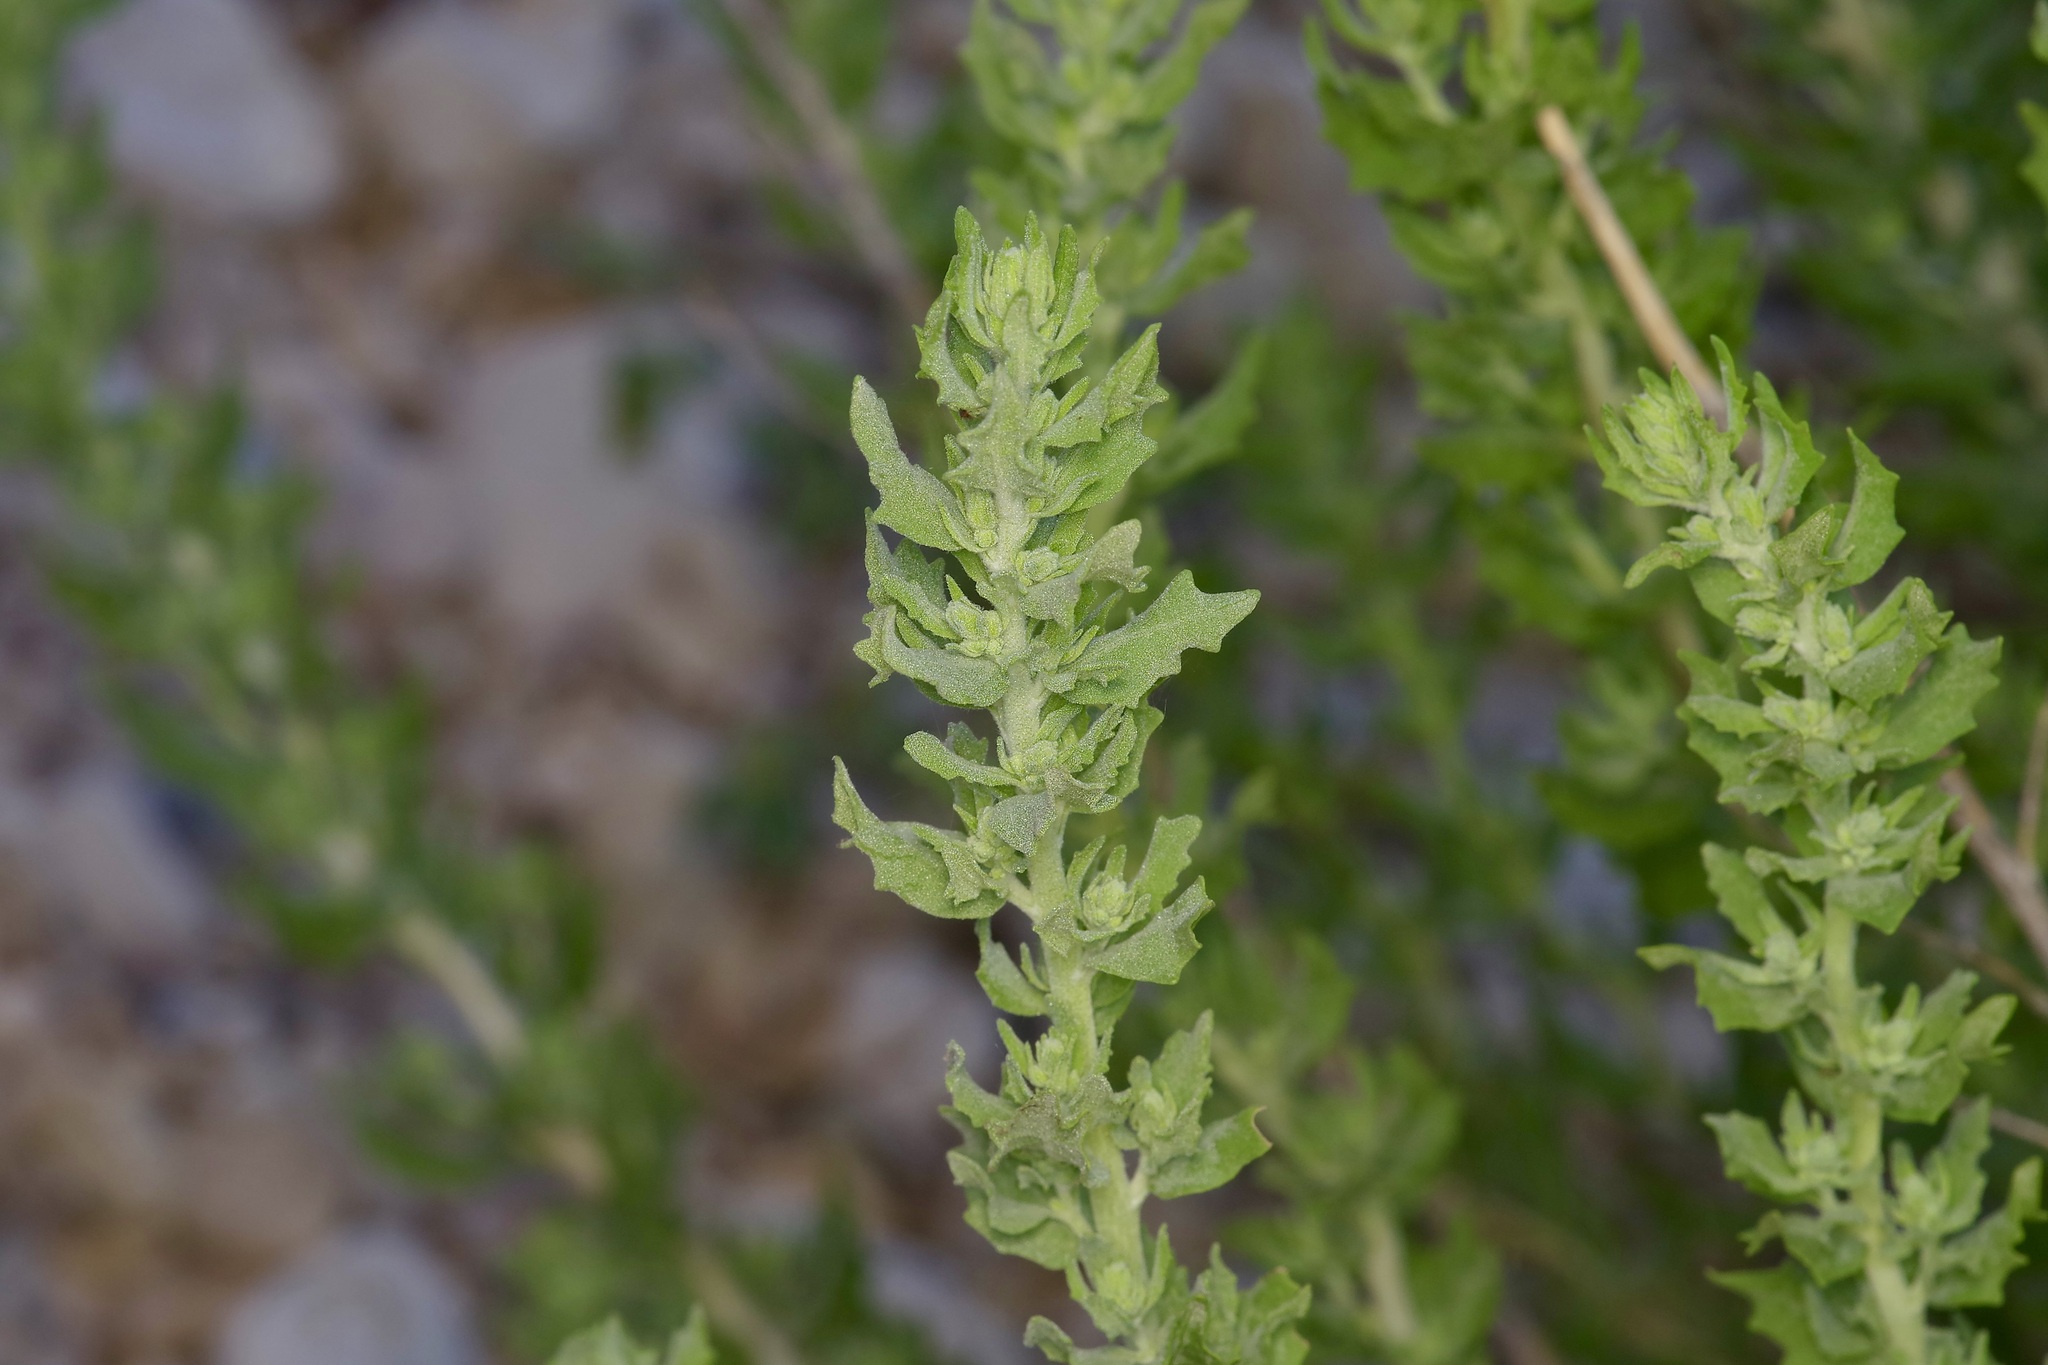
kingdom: Plantae
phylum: Tracheophyta
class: Magnoliopsida
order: Asterales
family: Asteraceae
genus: Brickellia
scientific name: Brickellia laciniata
